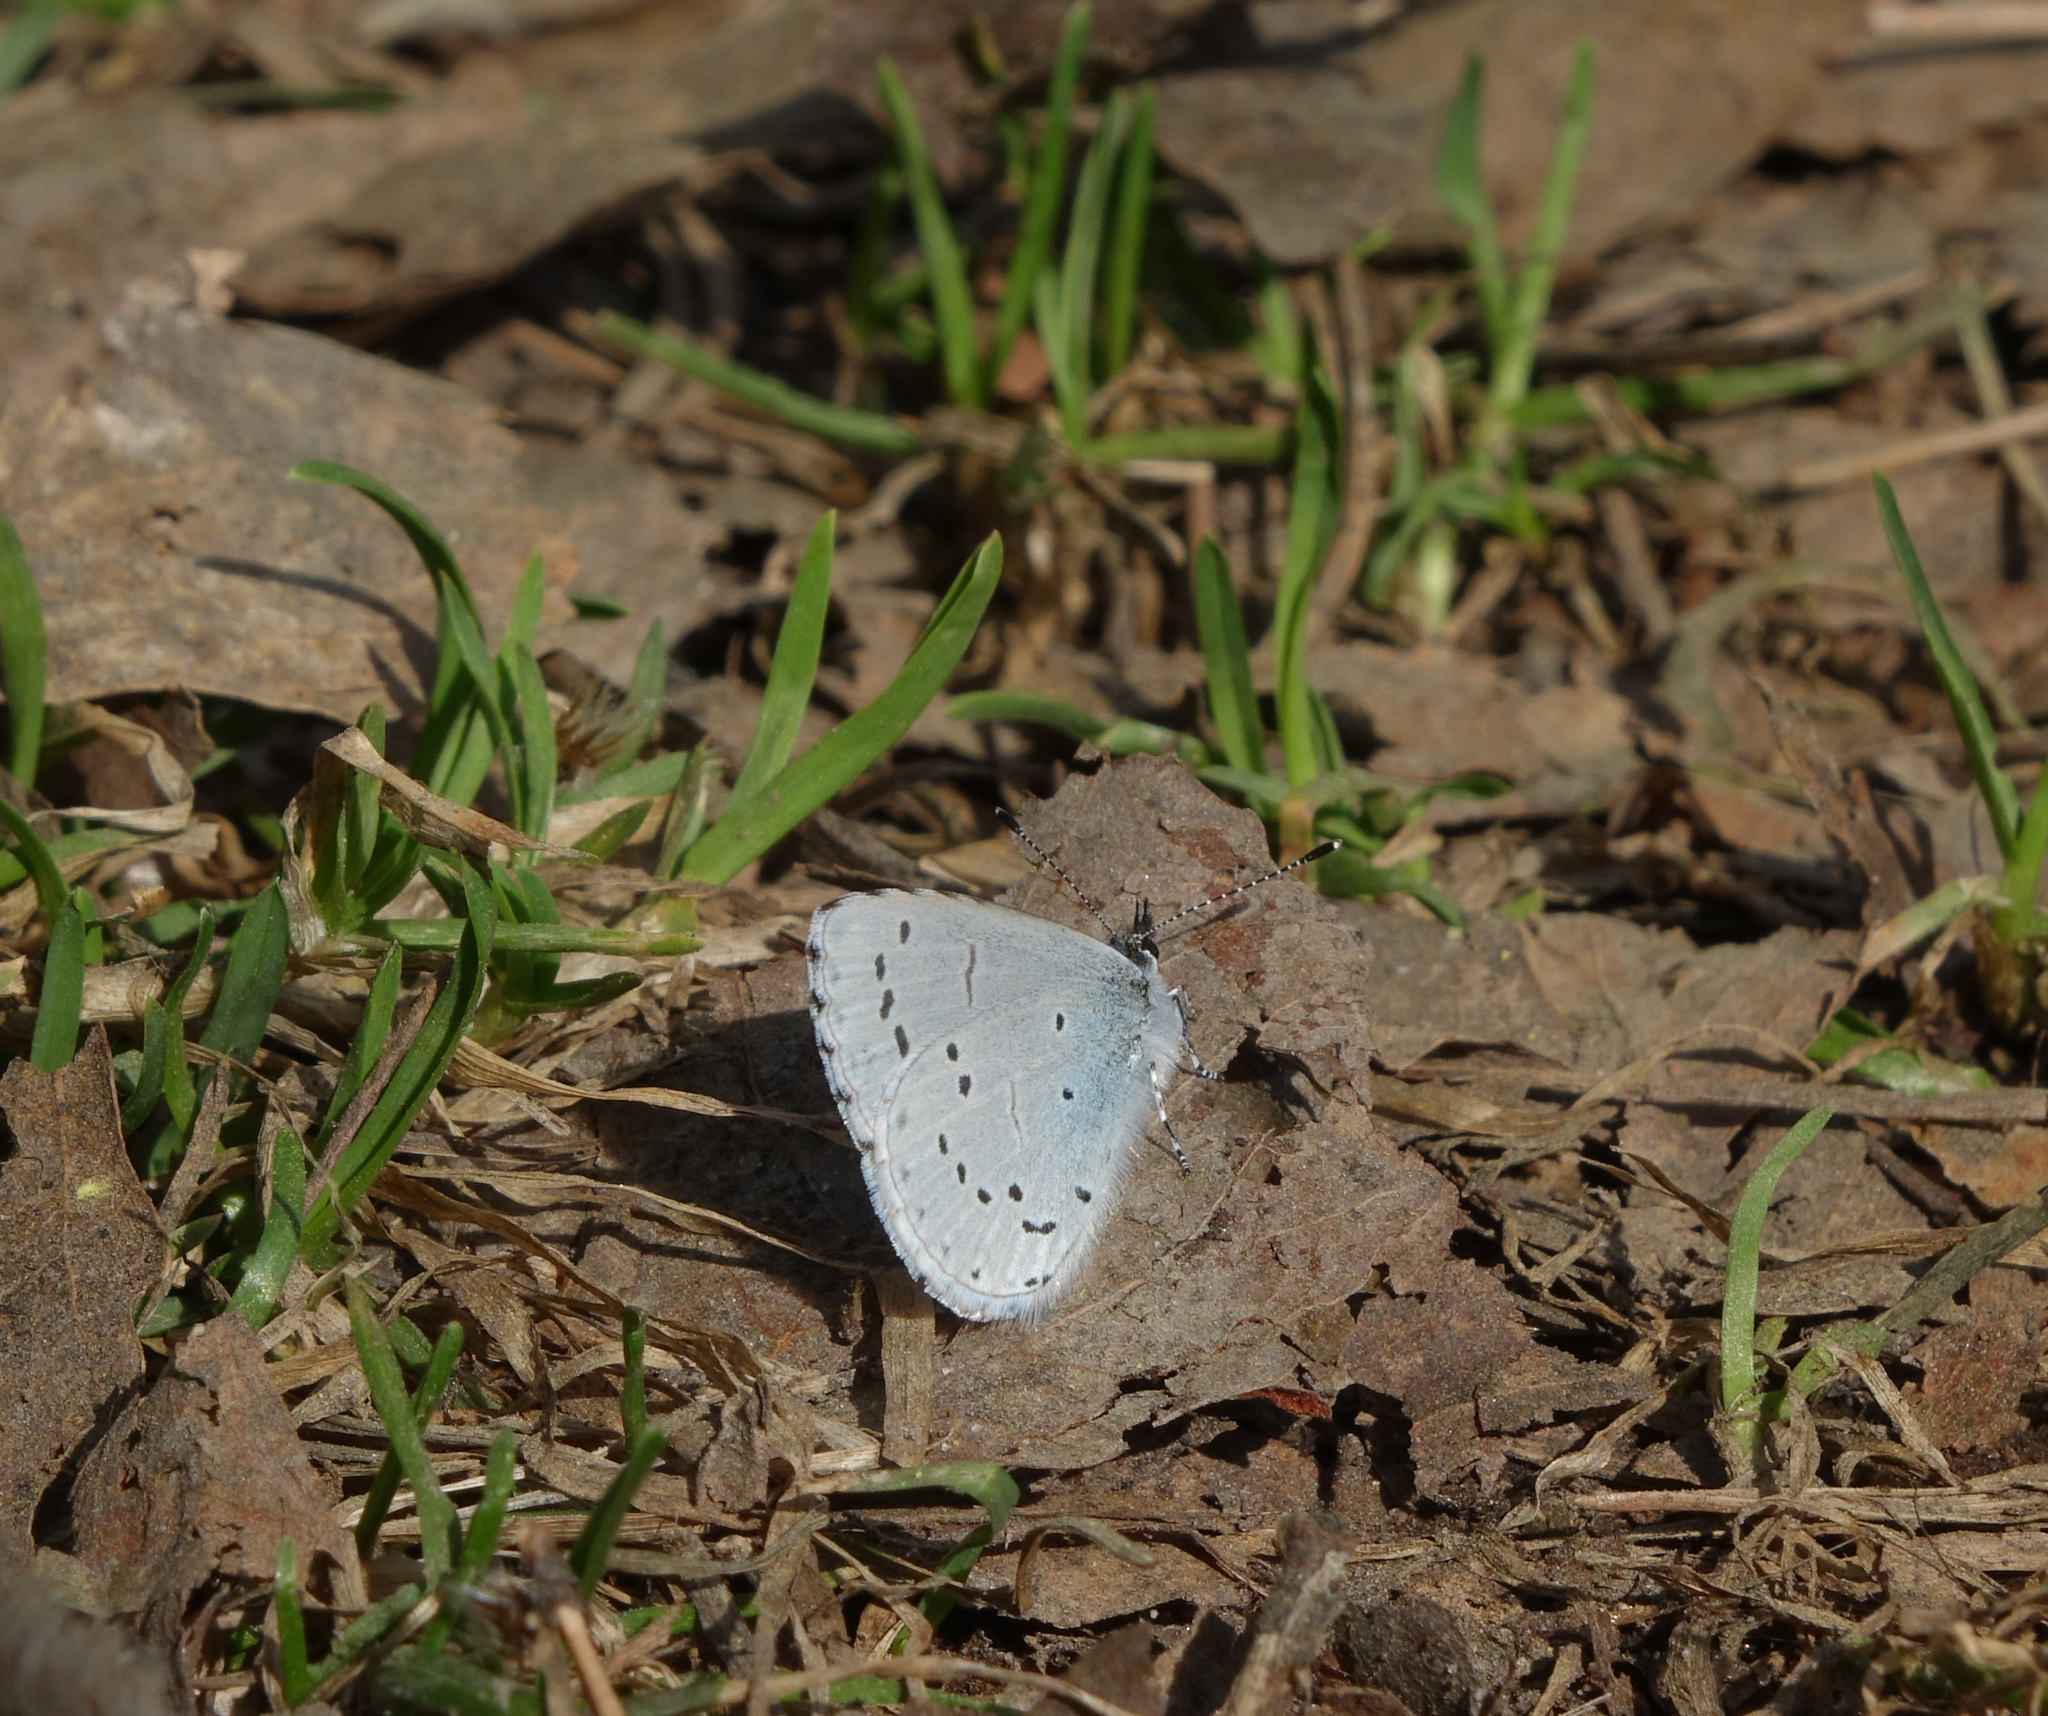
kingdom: Animalia
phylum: Arthropoda
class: Insecta
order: Lepidoptera
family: Lycaenidae
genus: Celastrina
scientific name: Celastrina argiolus
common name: Holly blue
